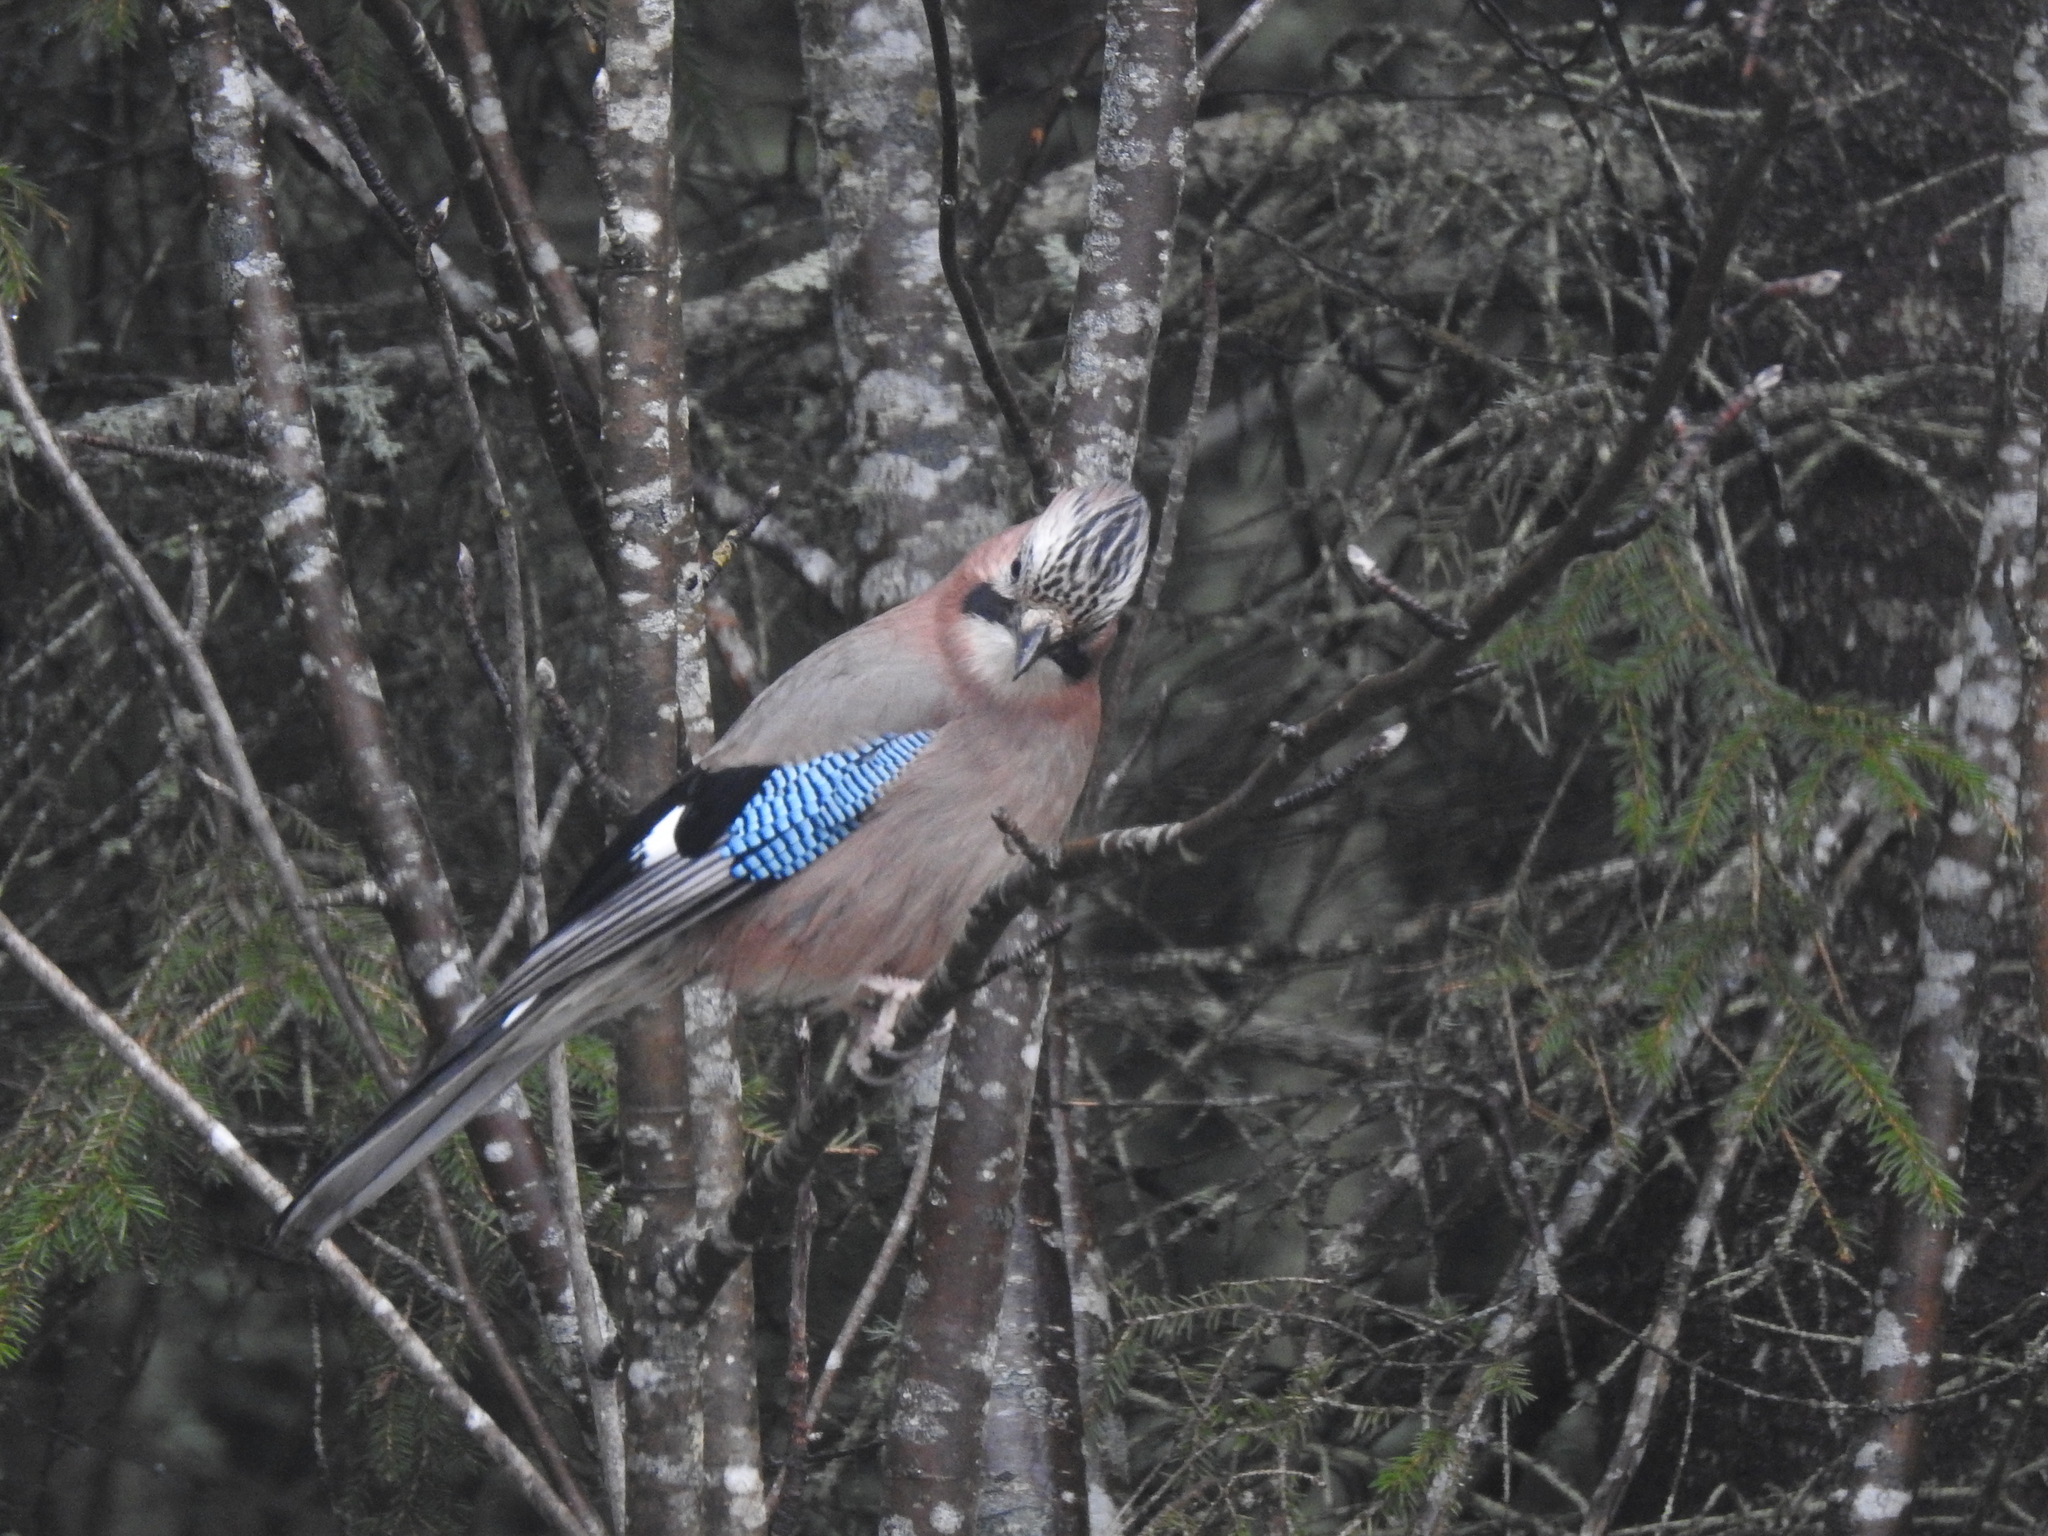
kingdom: Animalia
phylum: Chordata
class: Aves
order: Passeriformes
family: Corvidae
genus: Garrulus
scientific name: Garrulus glandarius
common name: Eurasian jay
